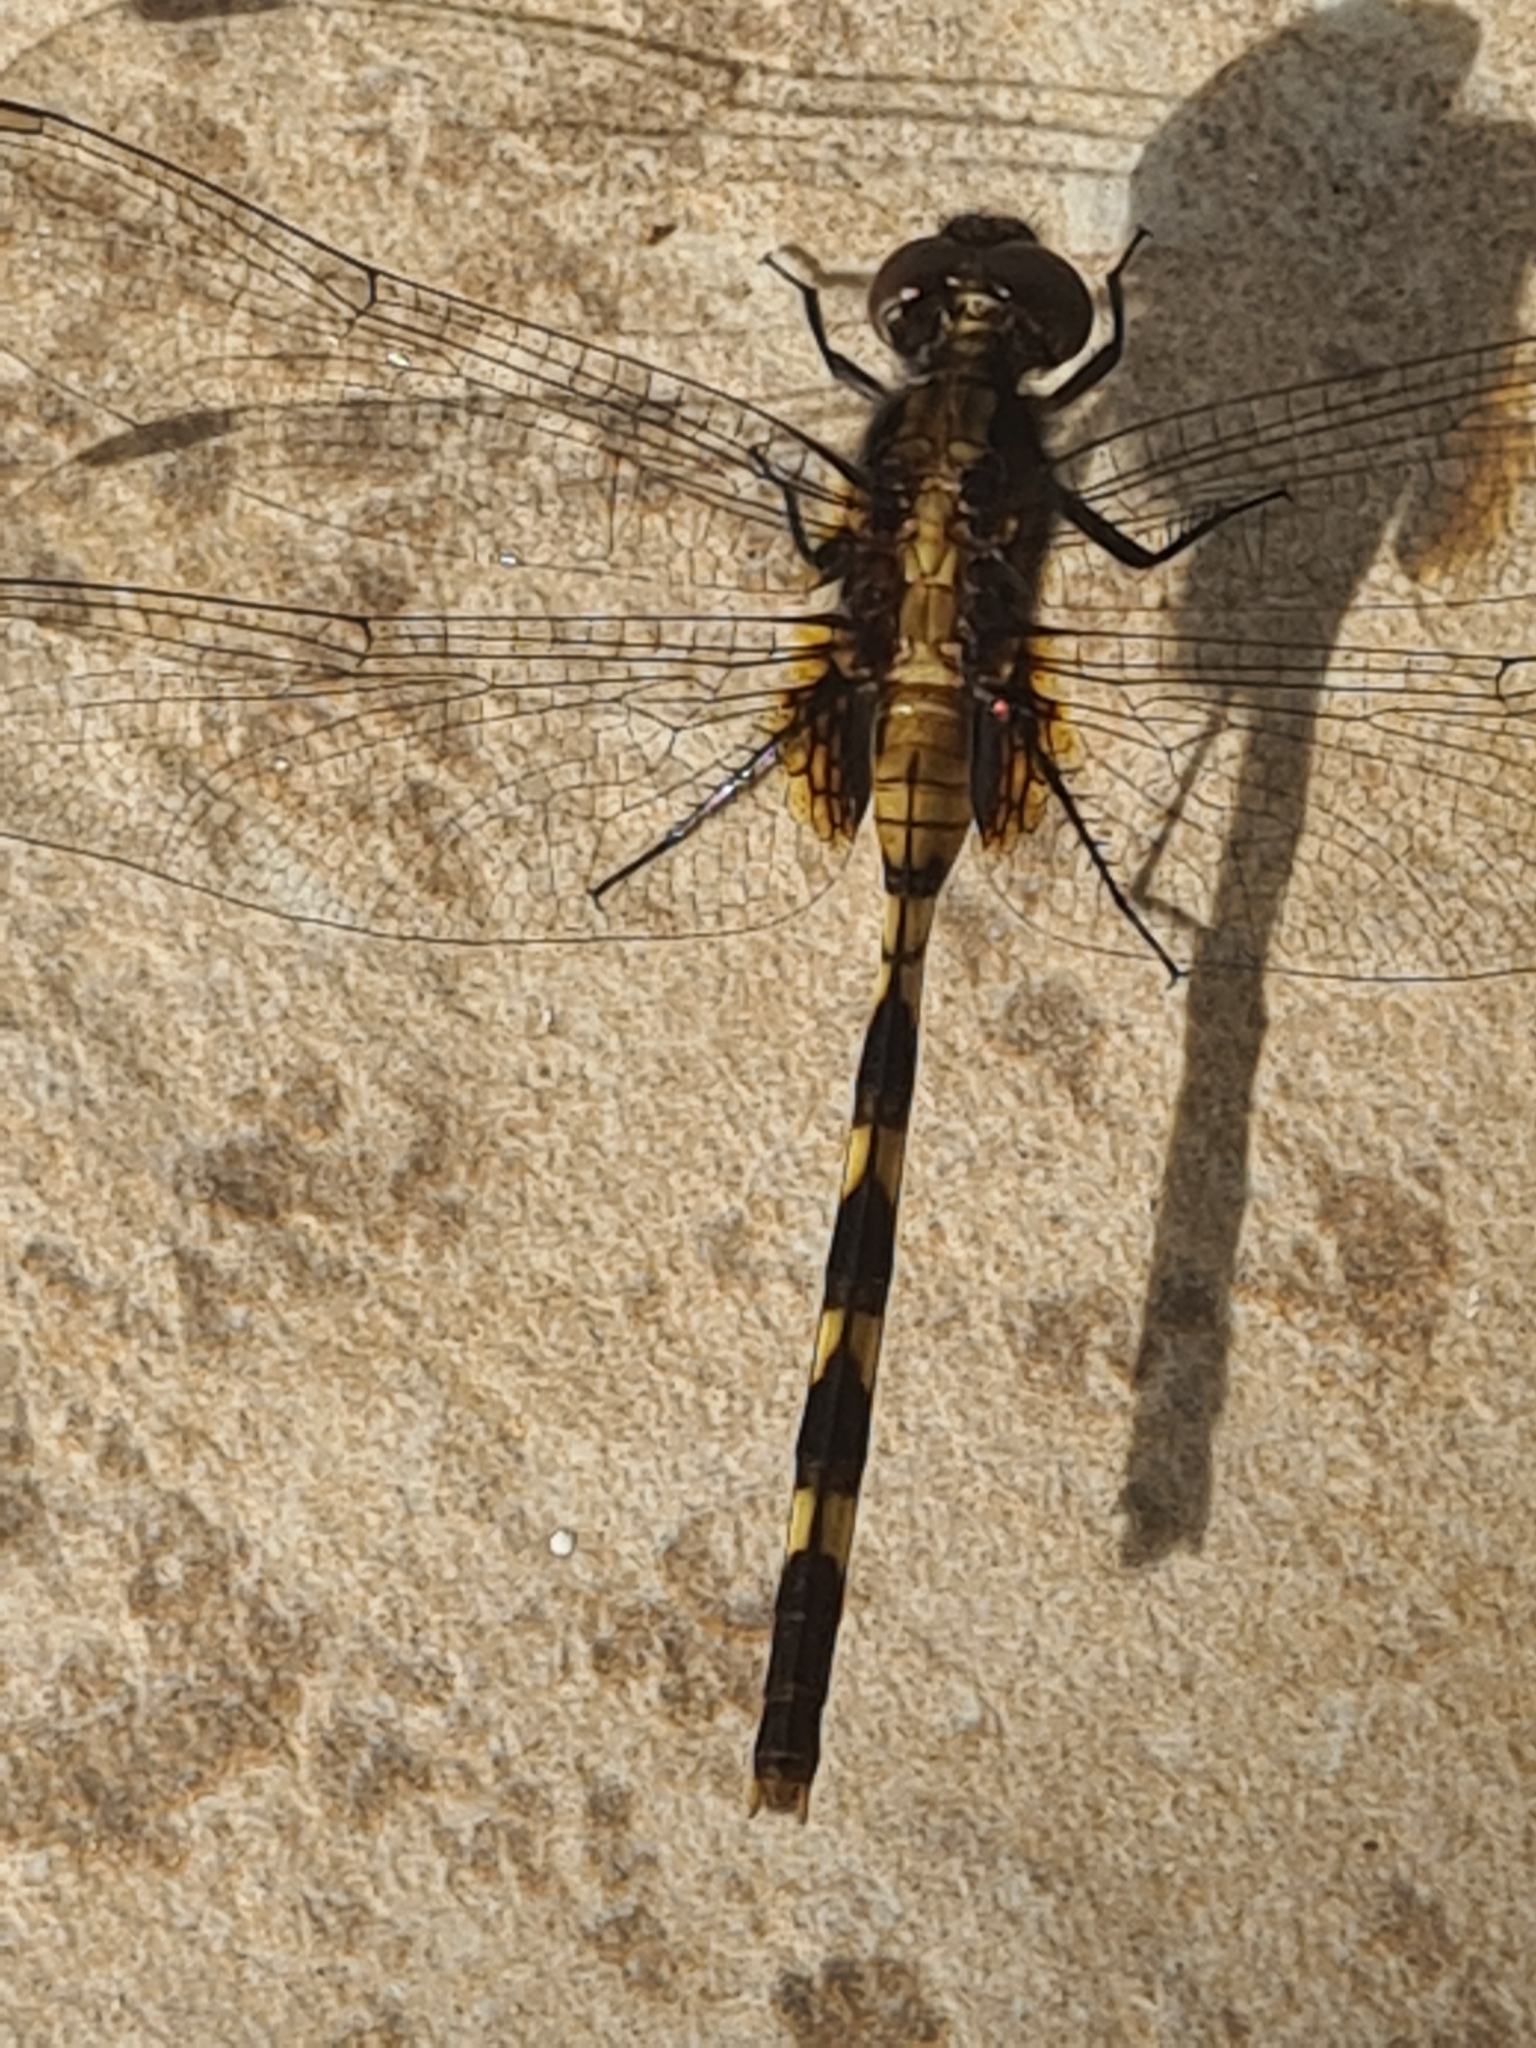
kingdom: Animalia
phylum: Arthropoda
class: Insecta
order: Odonata
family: Libellulidae
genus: Erythemis
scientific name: Erythemis plebeja
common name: Pin-tailed pondhawk
